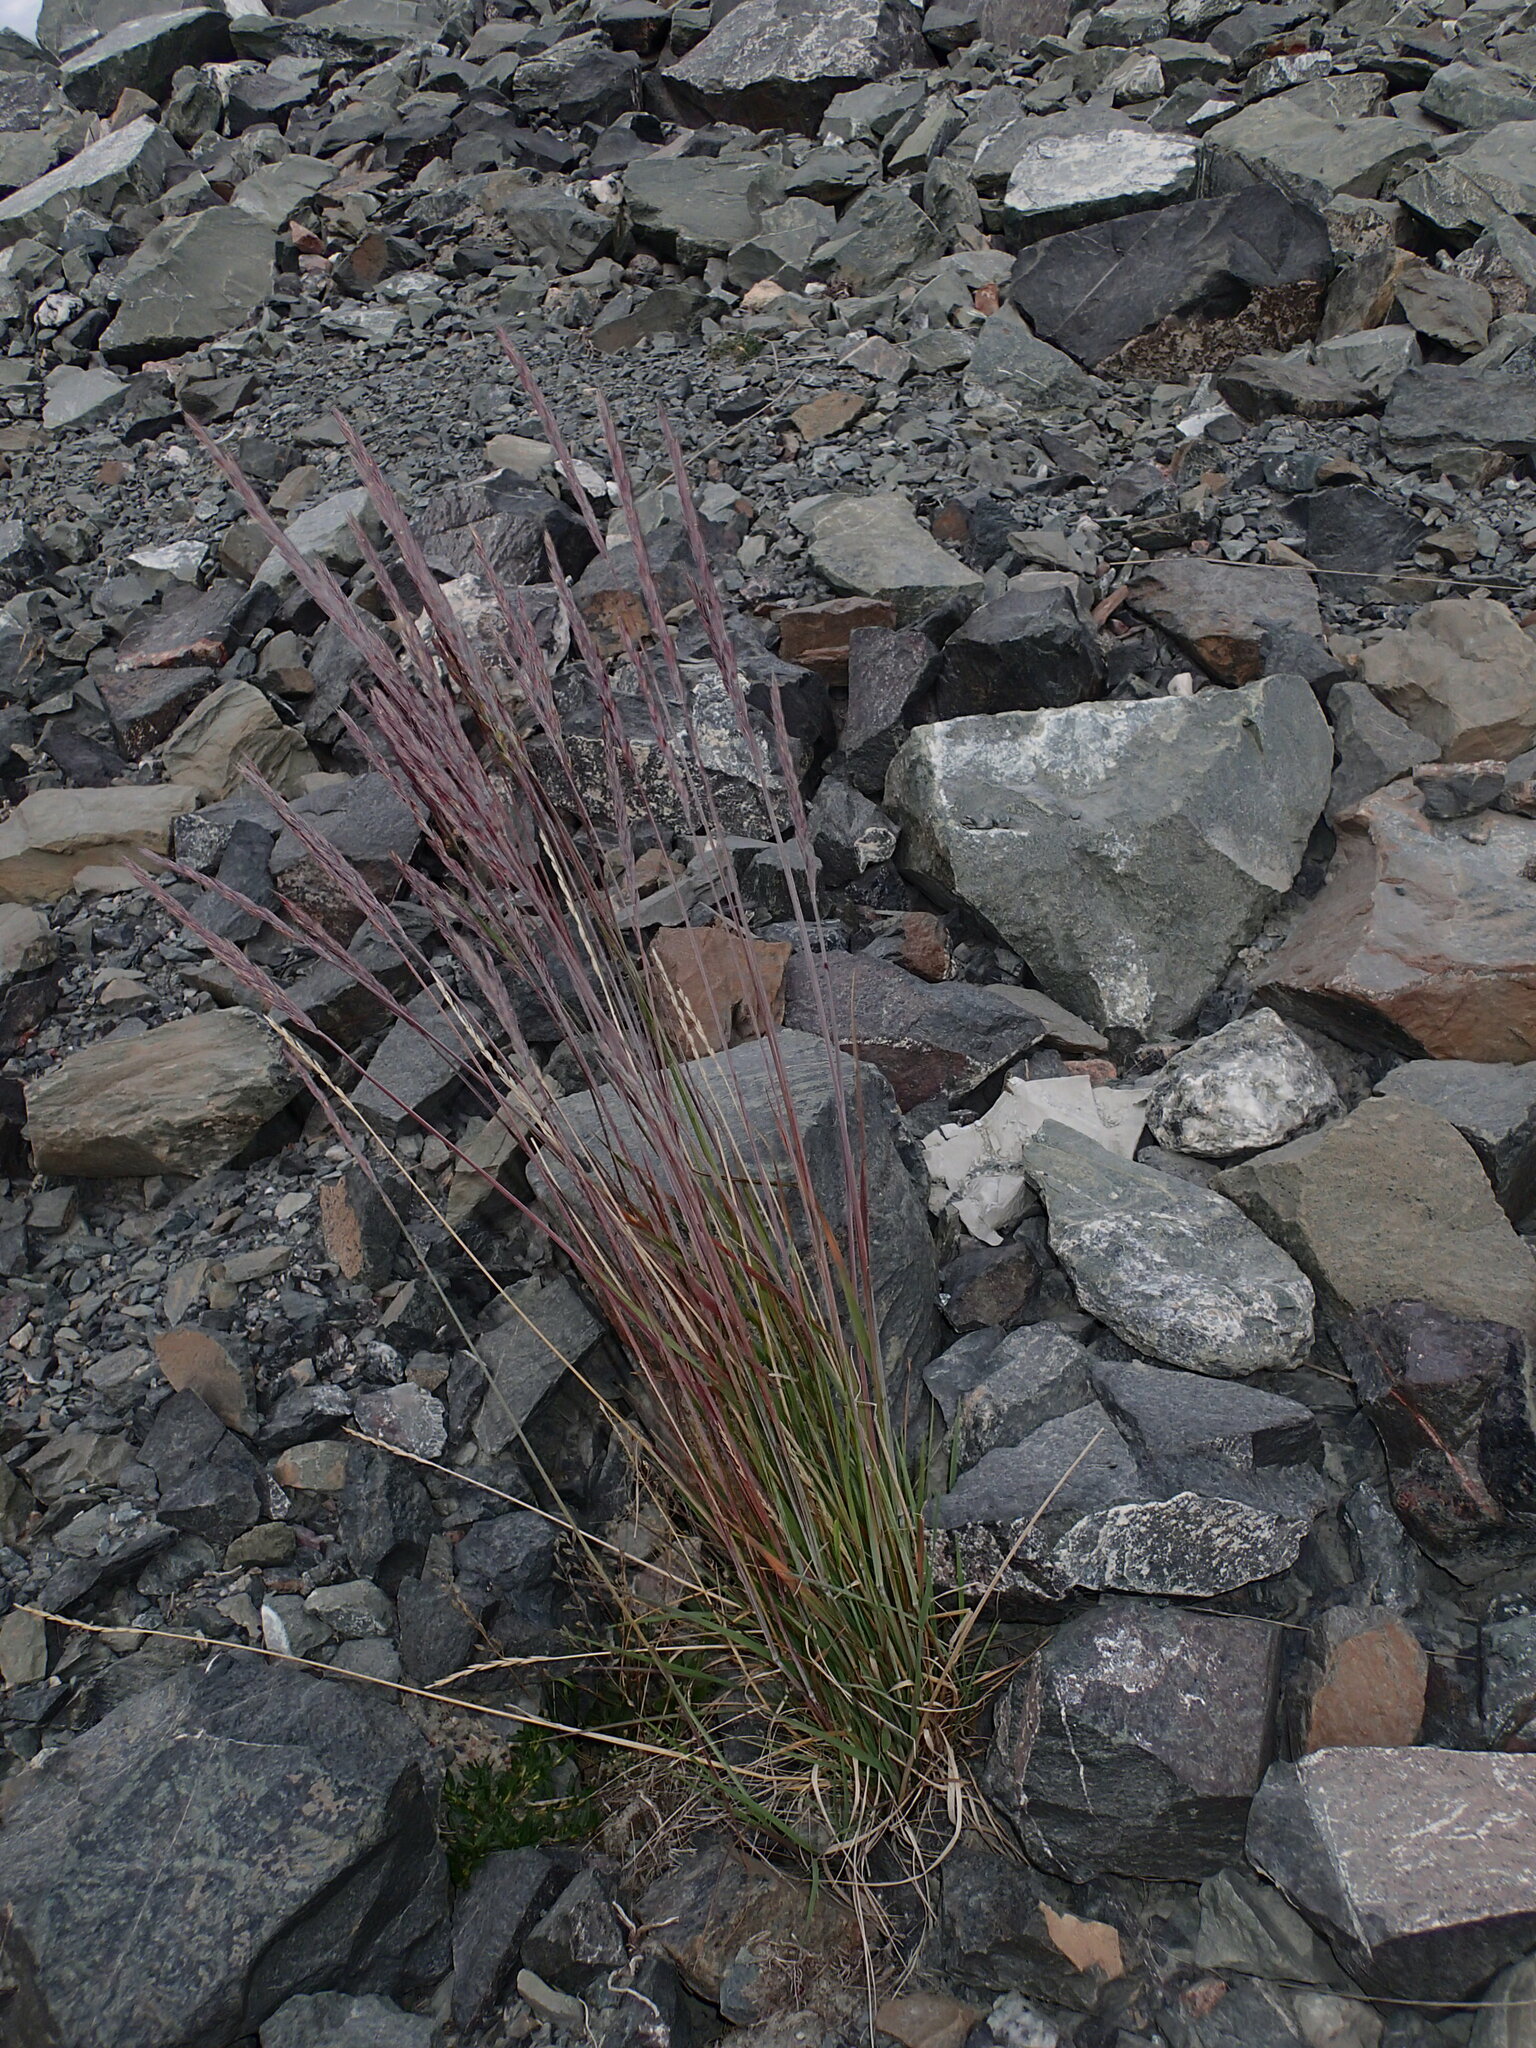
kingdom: Plantae
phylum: Tracheophyta
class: Liliopsida
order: Poales
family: Poaceae
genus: Leymus
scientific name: Leymus mollis
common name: American dune grass
